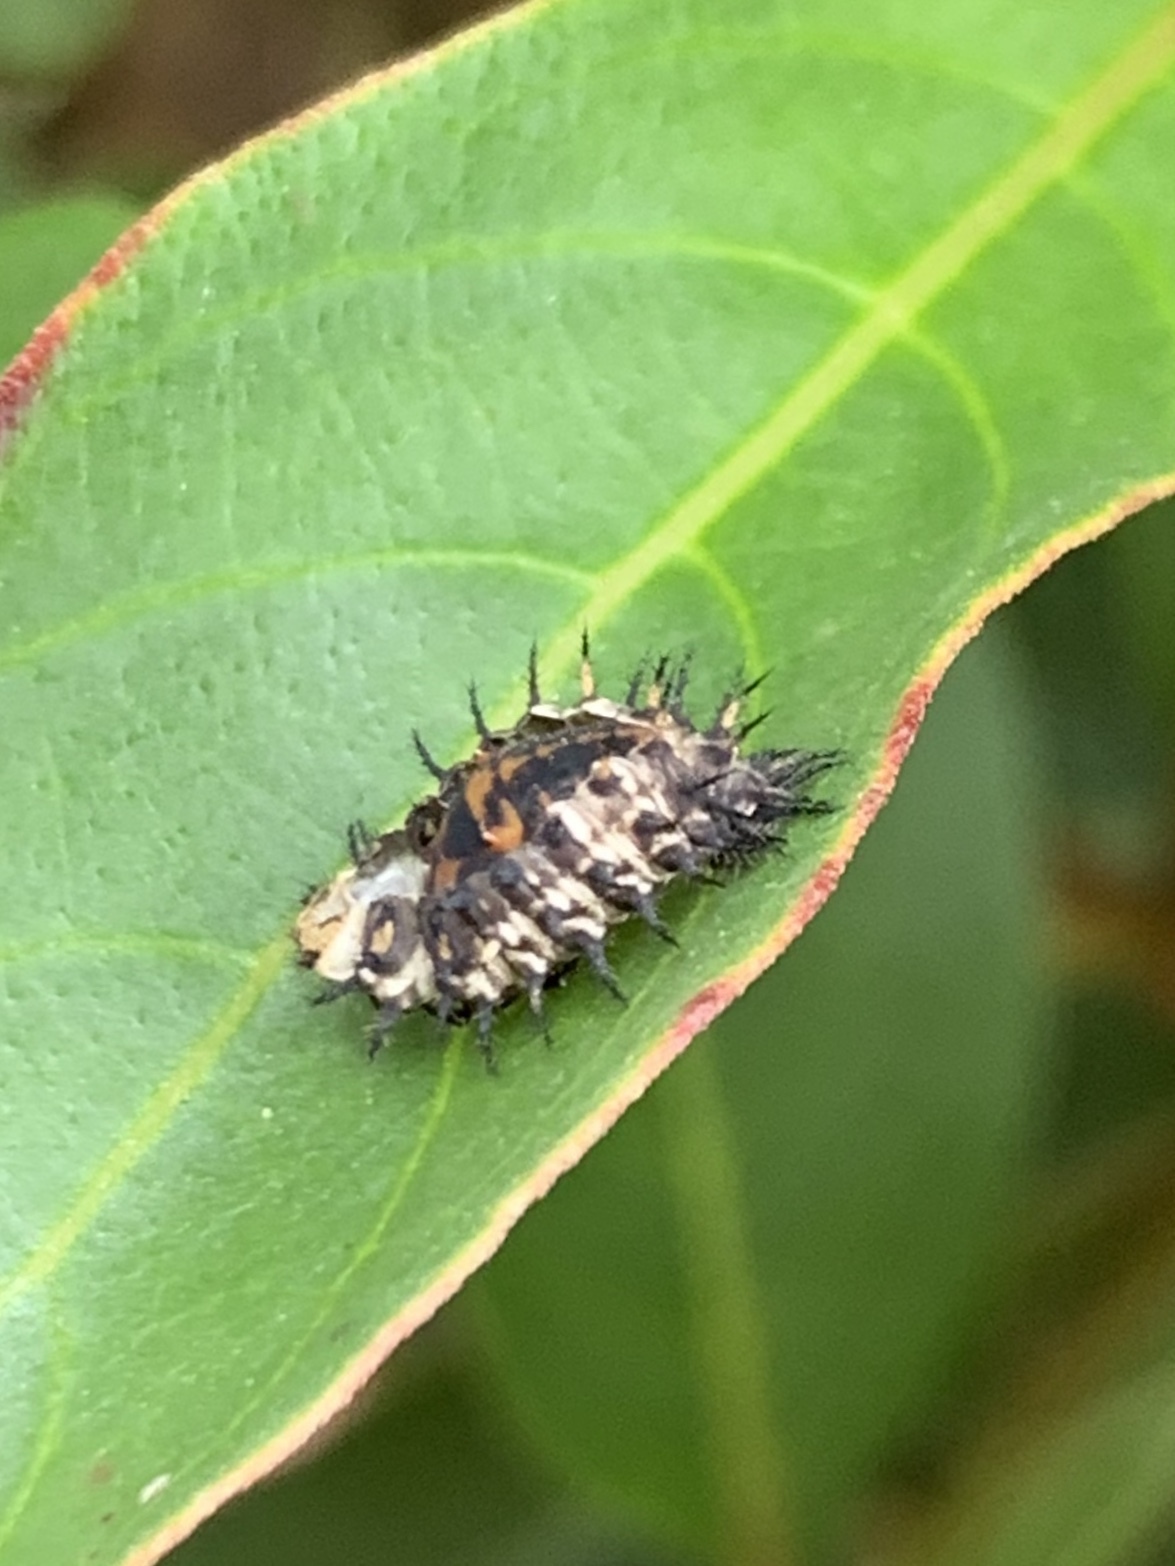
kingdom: Animalia
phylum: Arthropoda
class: Insecta
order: Coleoptera
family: Coccinellidae
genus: Curinus
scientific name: Curinus coeruleus
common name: Ladybird beetle
